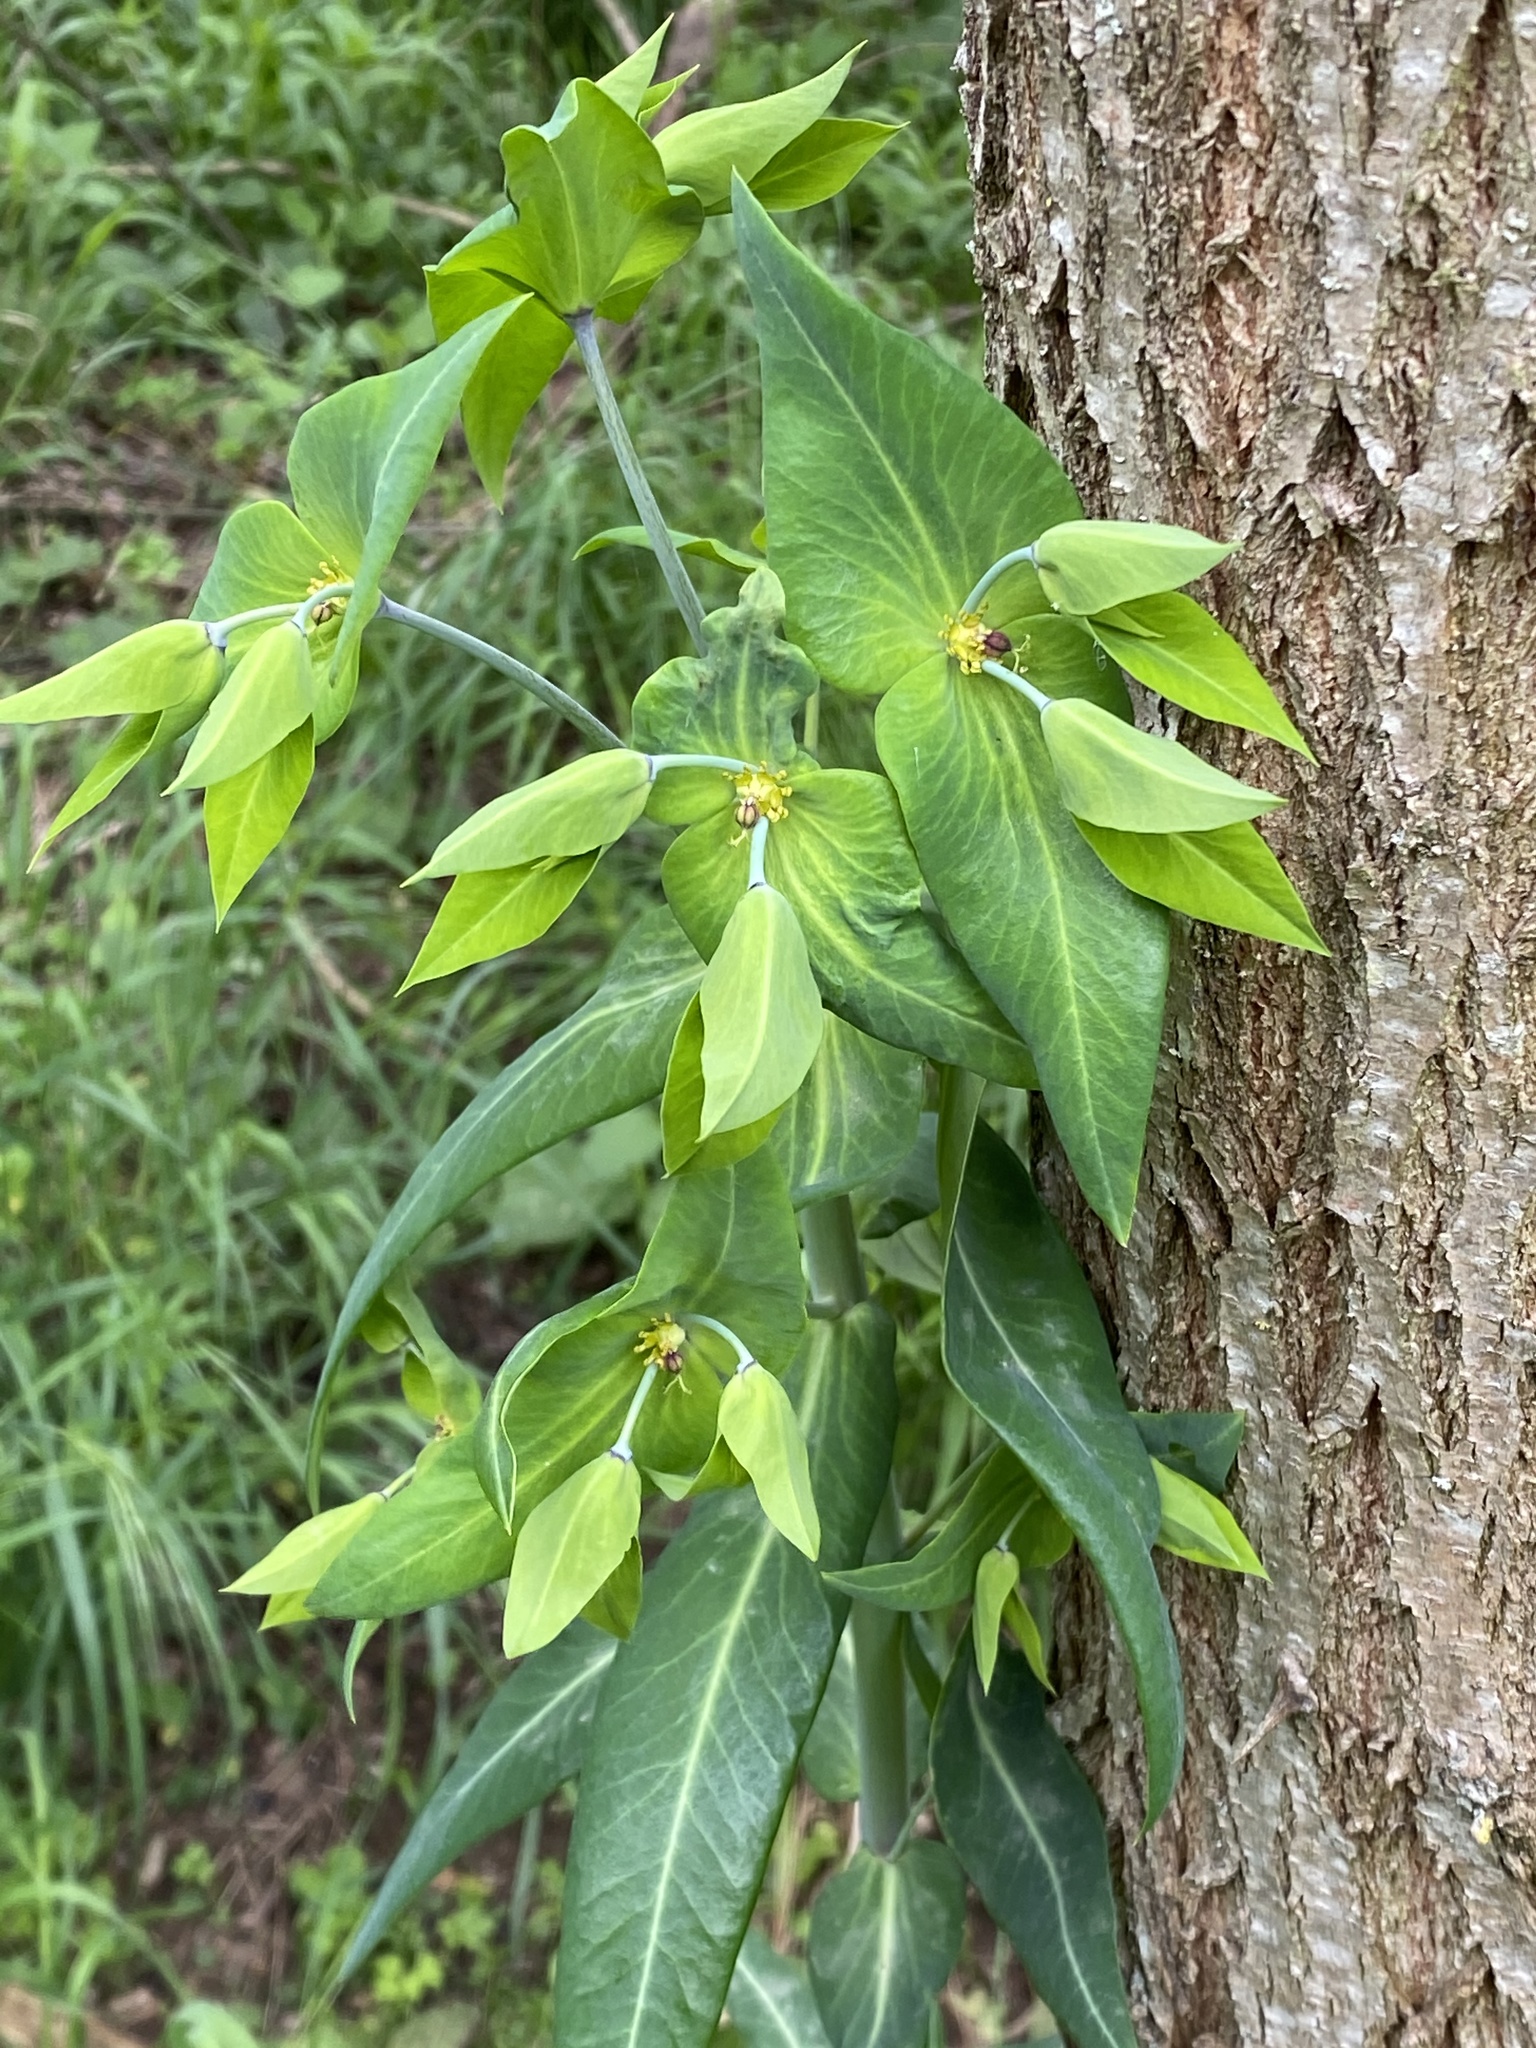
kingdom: Plantae
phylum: Tracheophyta
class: Magnoliopsida
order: Malpighiales
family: Euphorbiaceae
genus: Euphorbia
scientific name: Euphorbia lathyris
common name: Caper spurge
